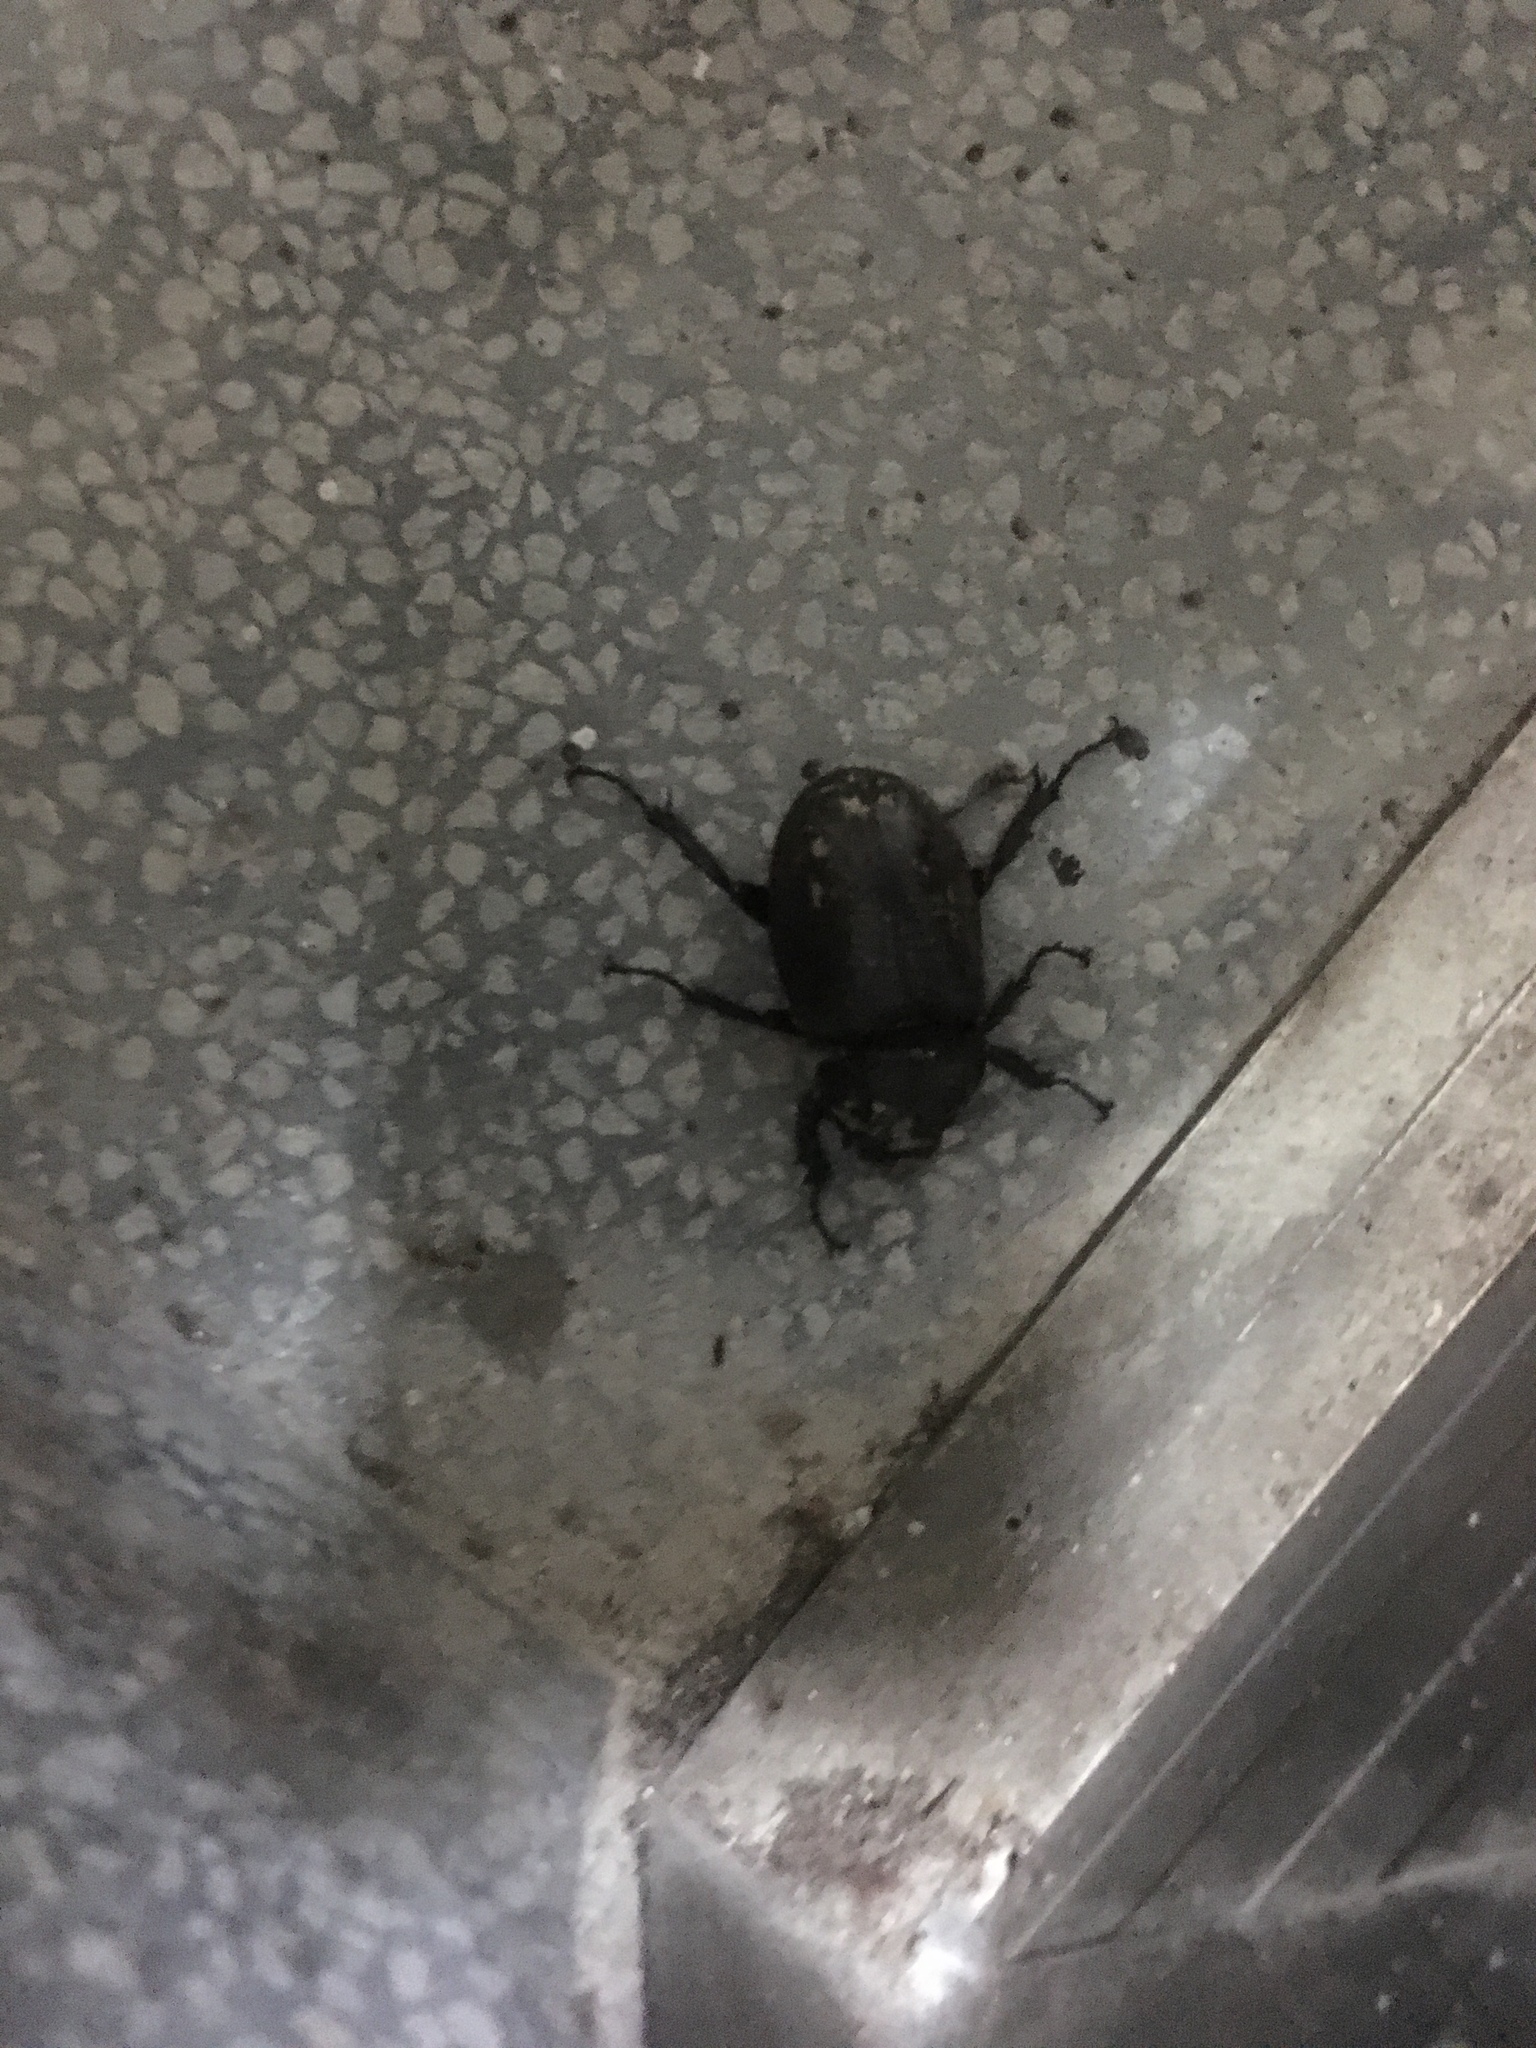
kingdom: Animalia
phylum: Arthropoda
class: Insecta
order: Coleoptera
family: Scarabaeidae
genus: Trypoxylus
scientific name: Trypoxylus dichotomus
